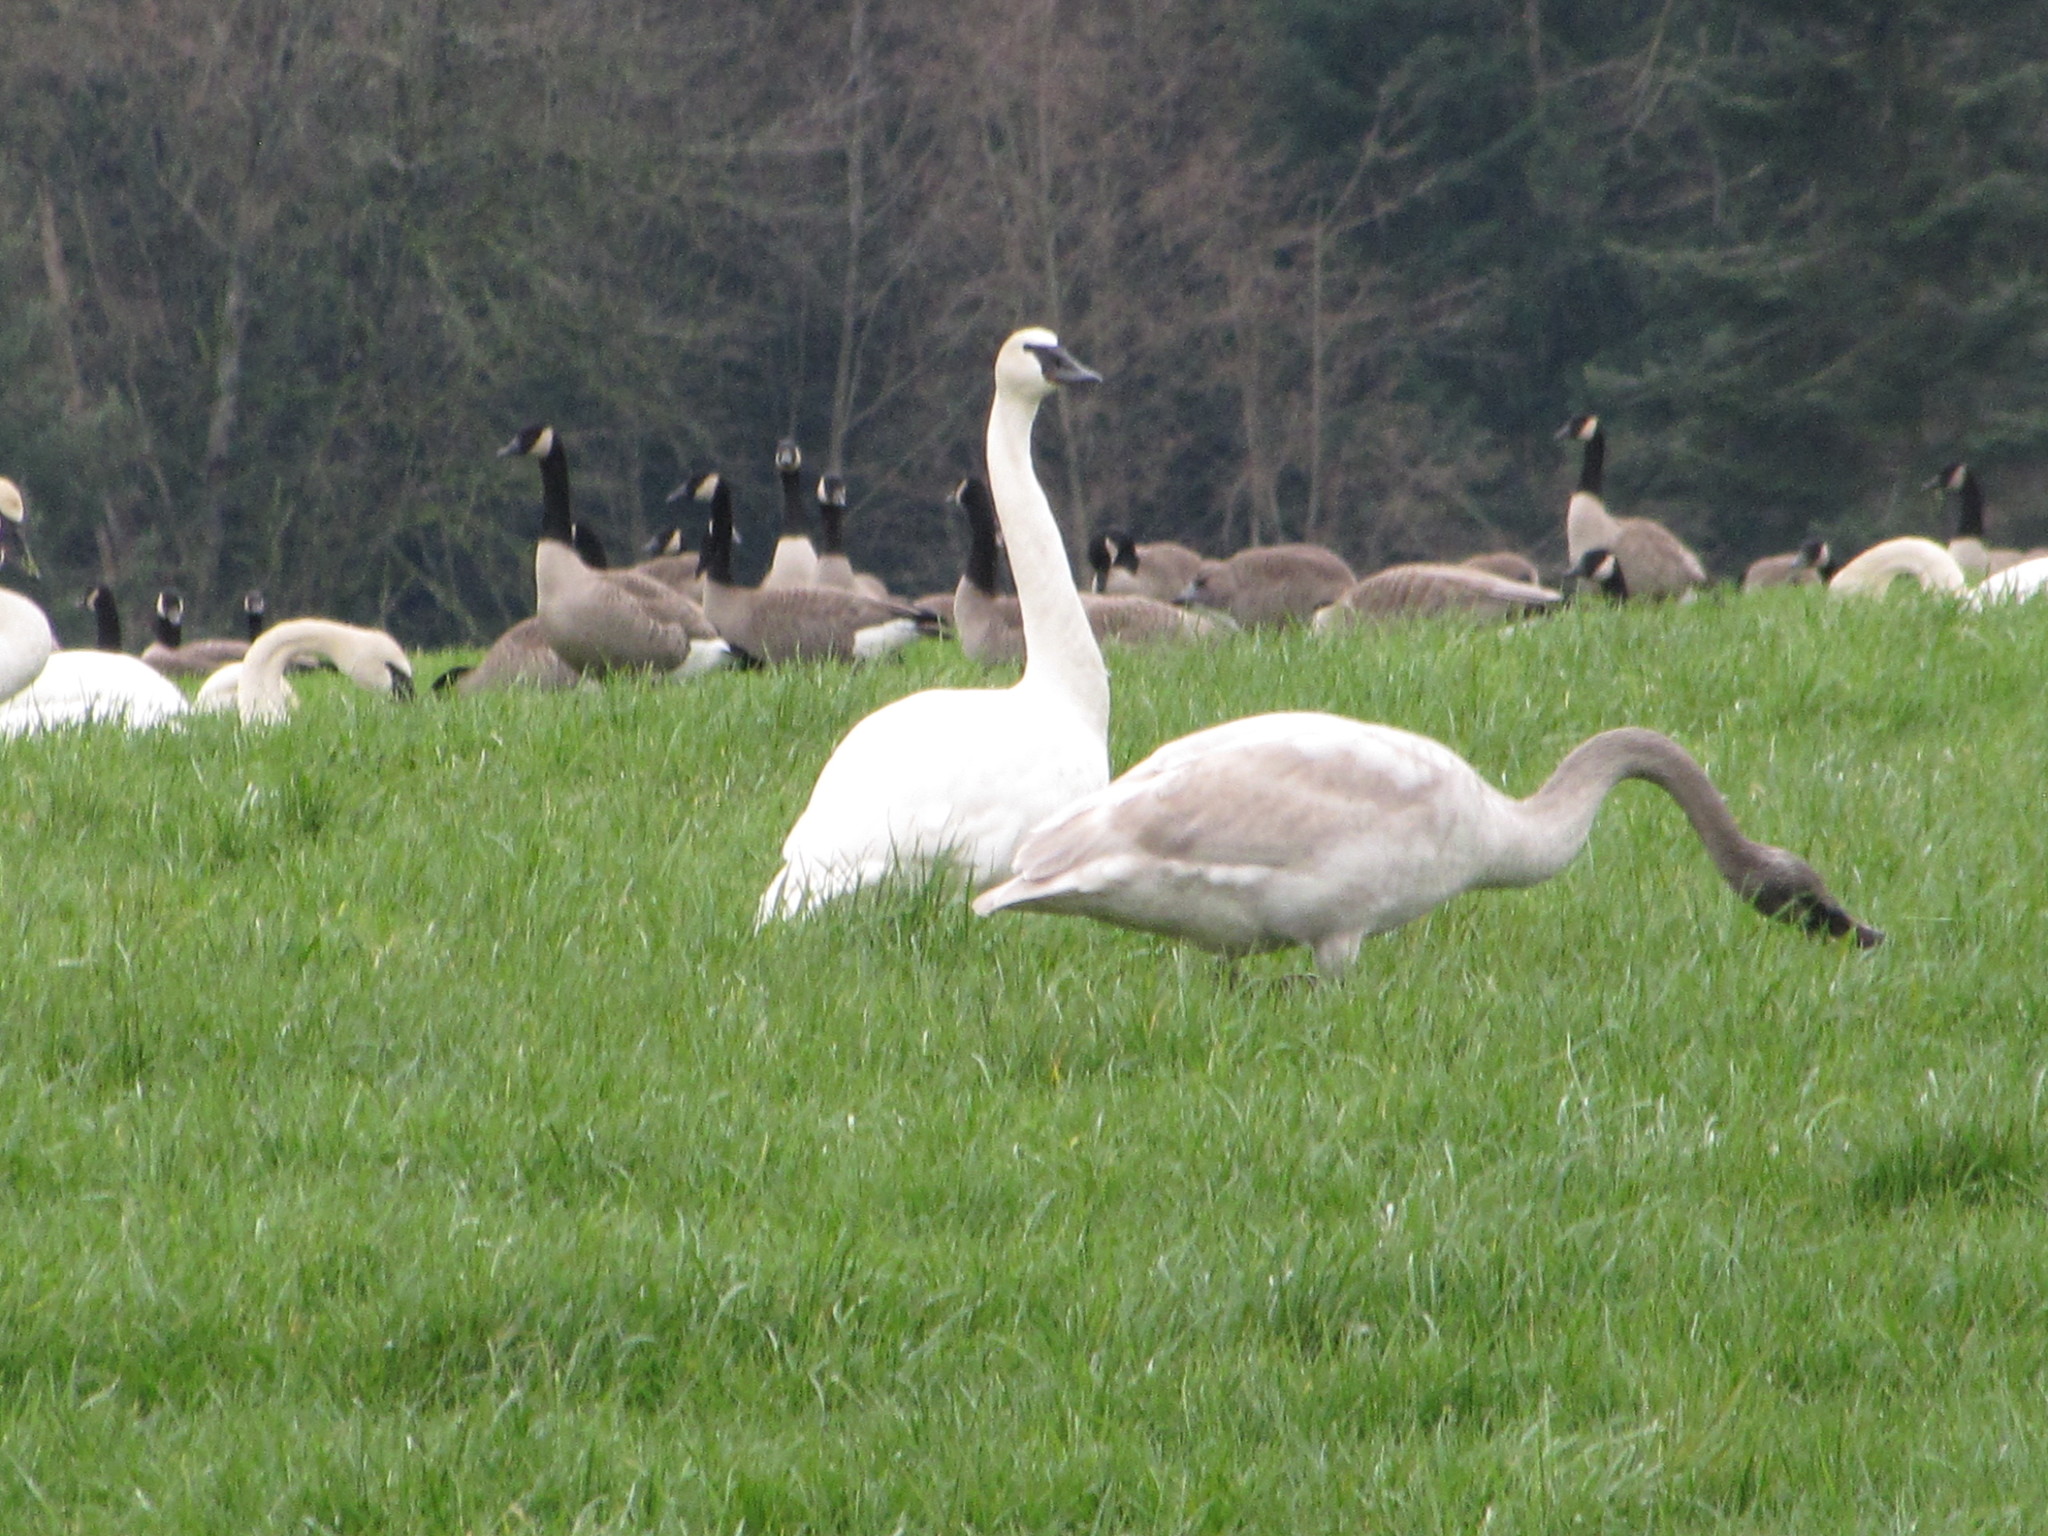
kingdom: Animalia
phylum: Chordata
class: Aves
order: Anseriformes
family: Anatidae
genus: Cygnus
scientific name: Cygnus buccinator
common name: Trumpeter swan
